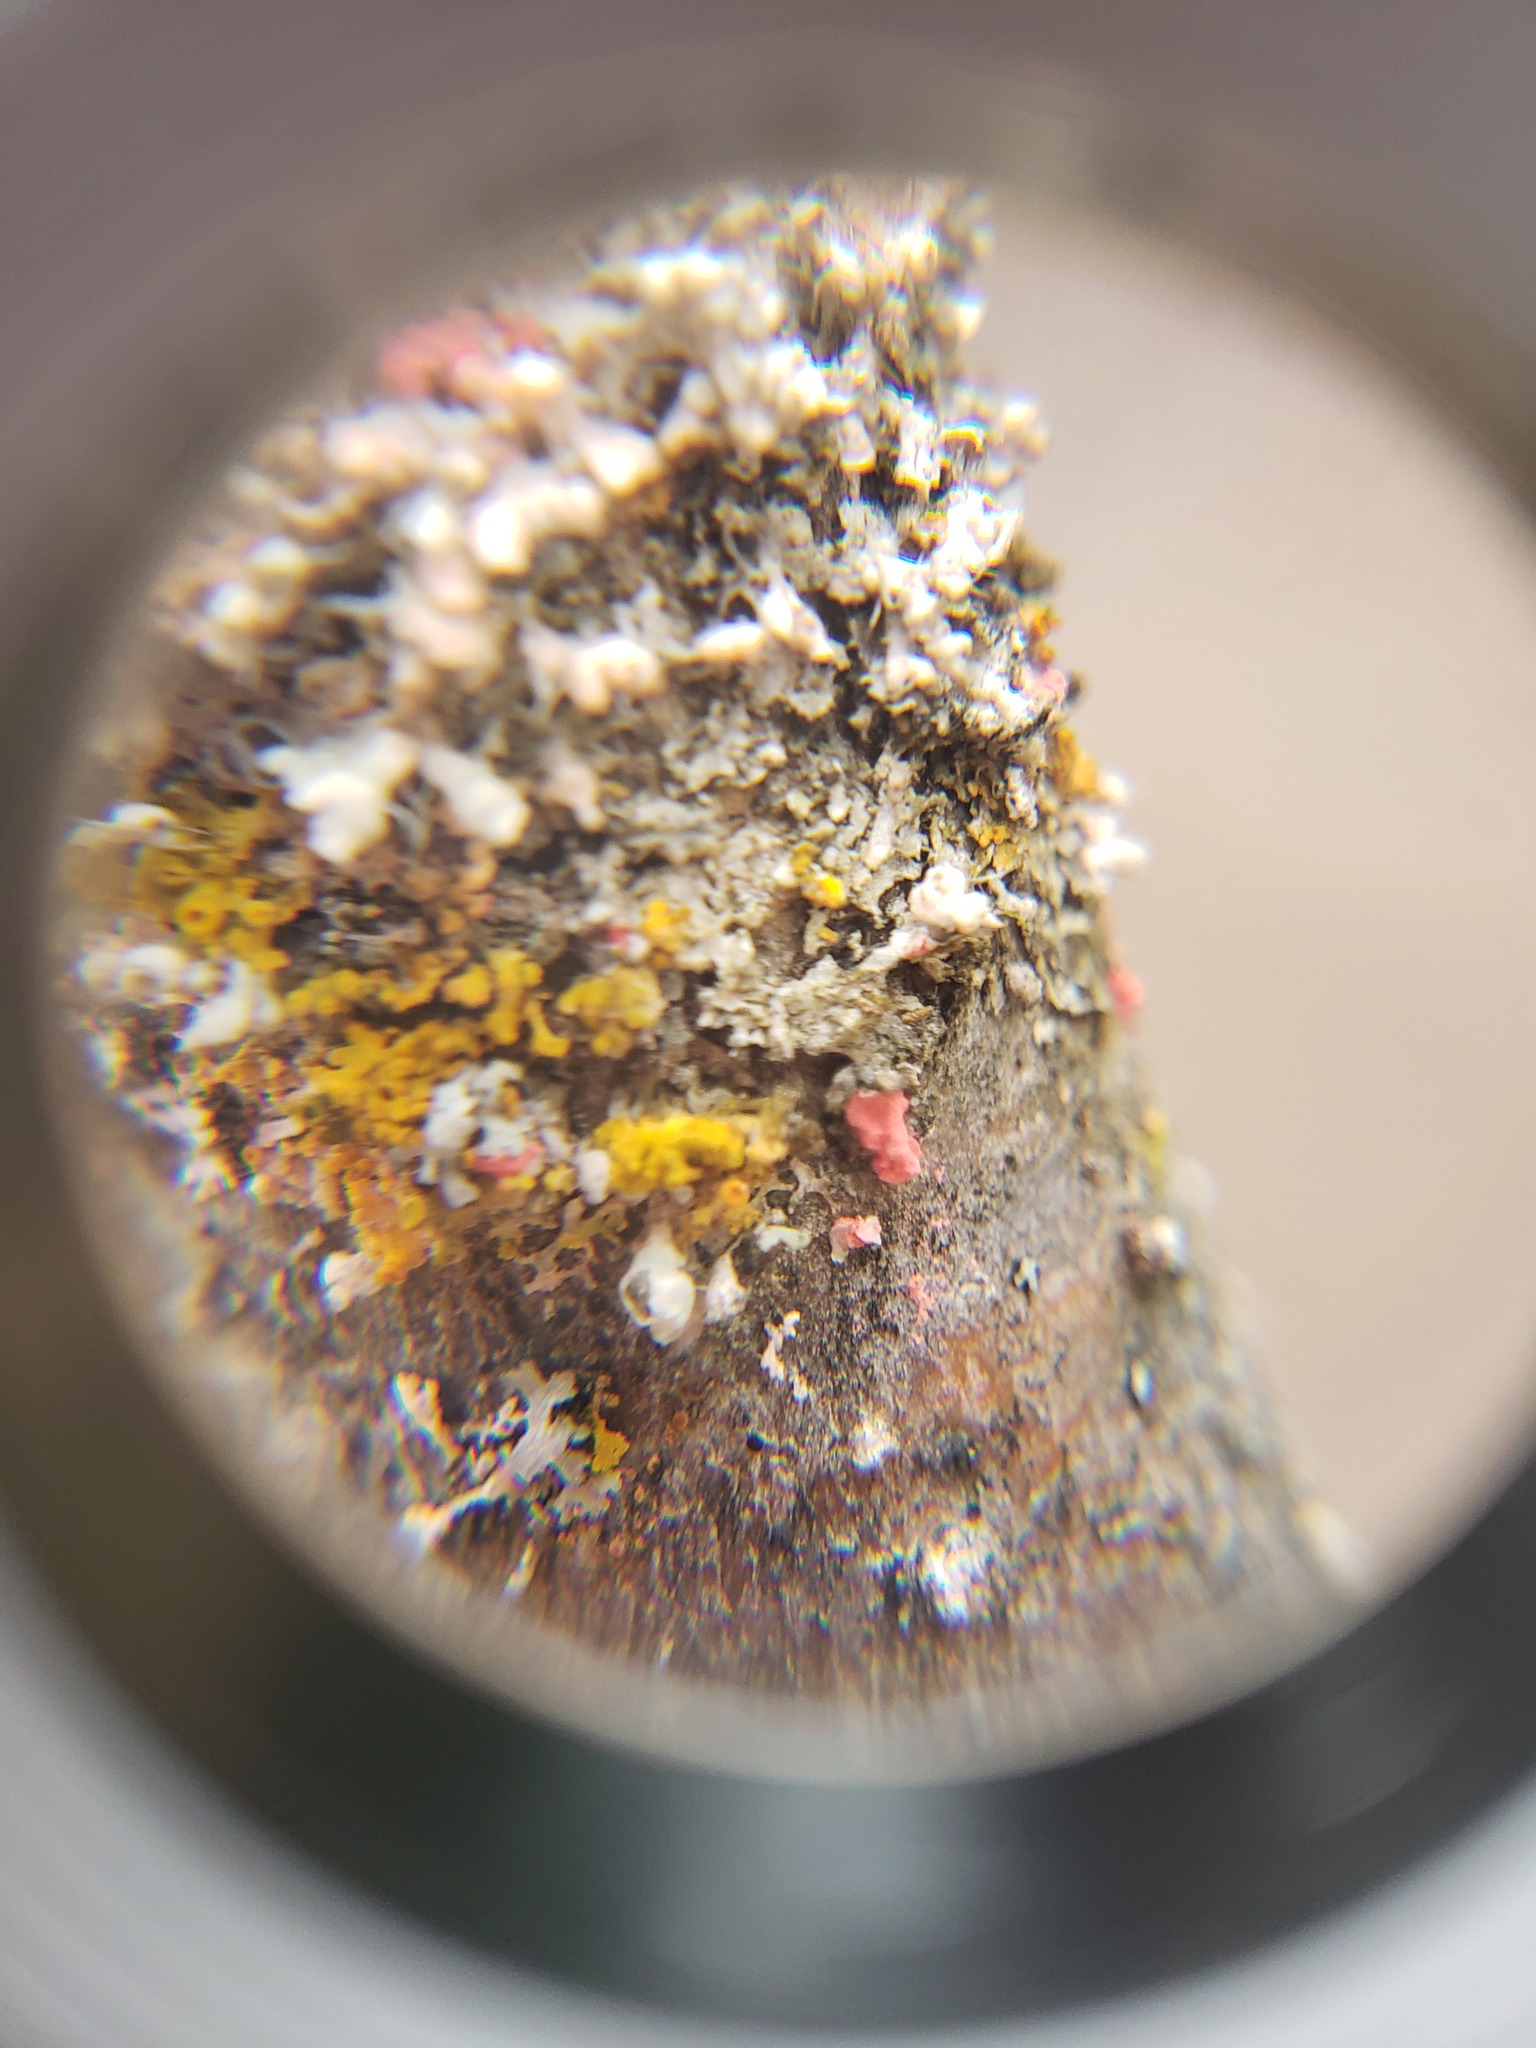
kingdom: Fungi
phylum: Ascomycota
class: Sordariomycetes
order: Hypocreales
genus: Illosporiopsis
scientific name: Illosporiopsis christiansenii
